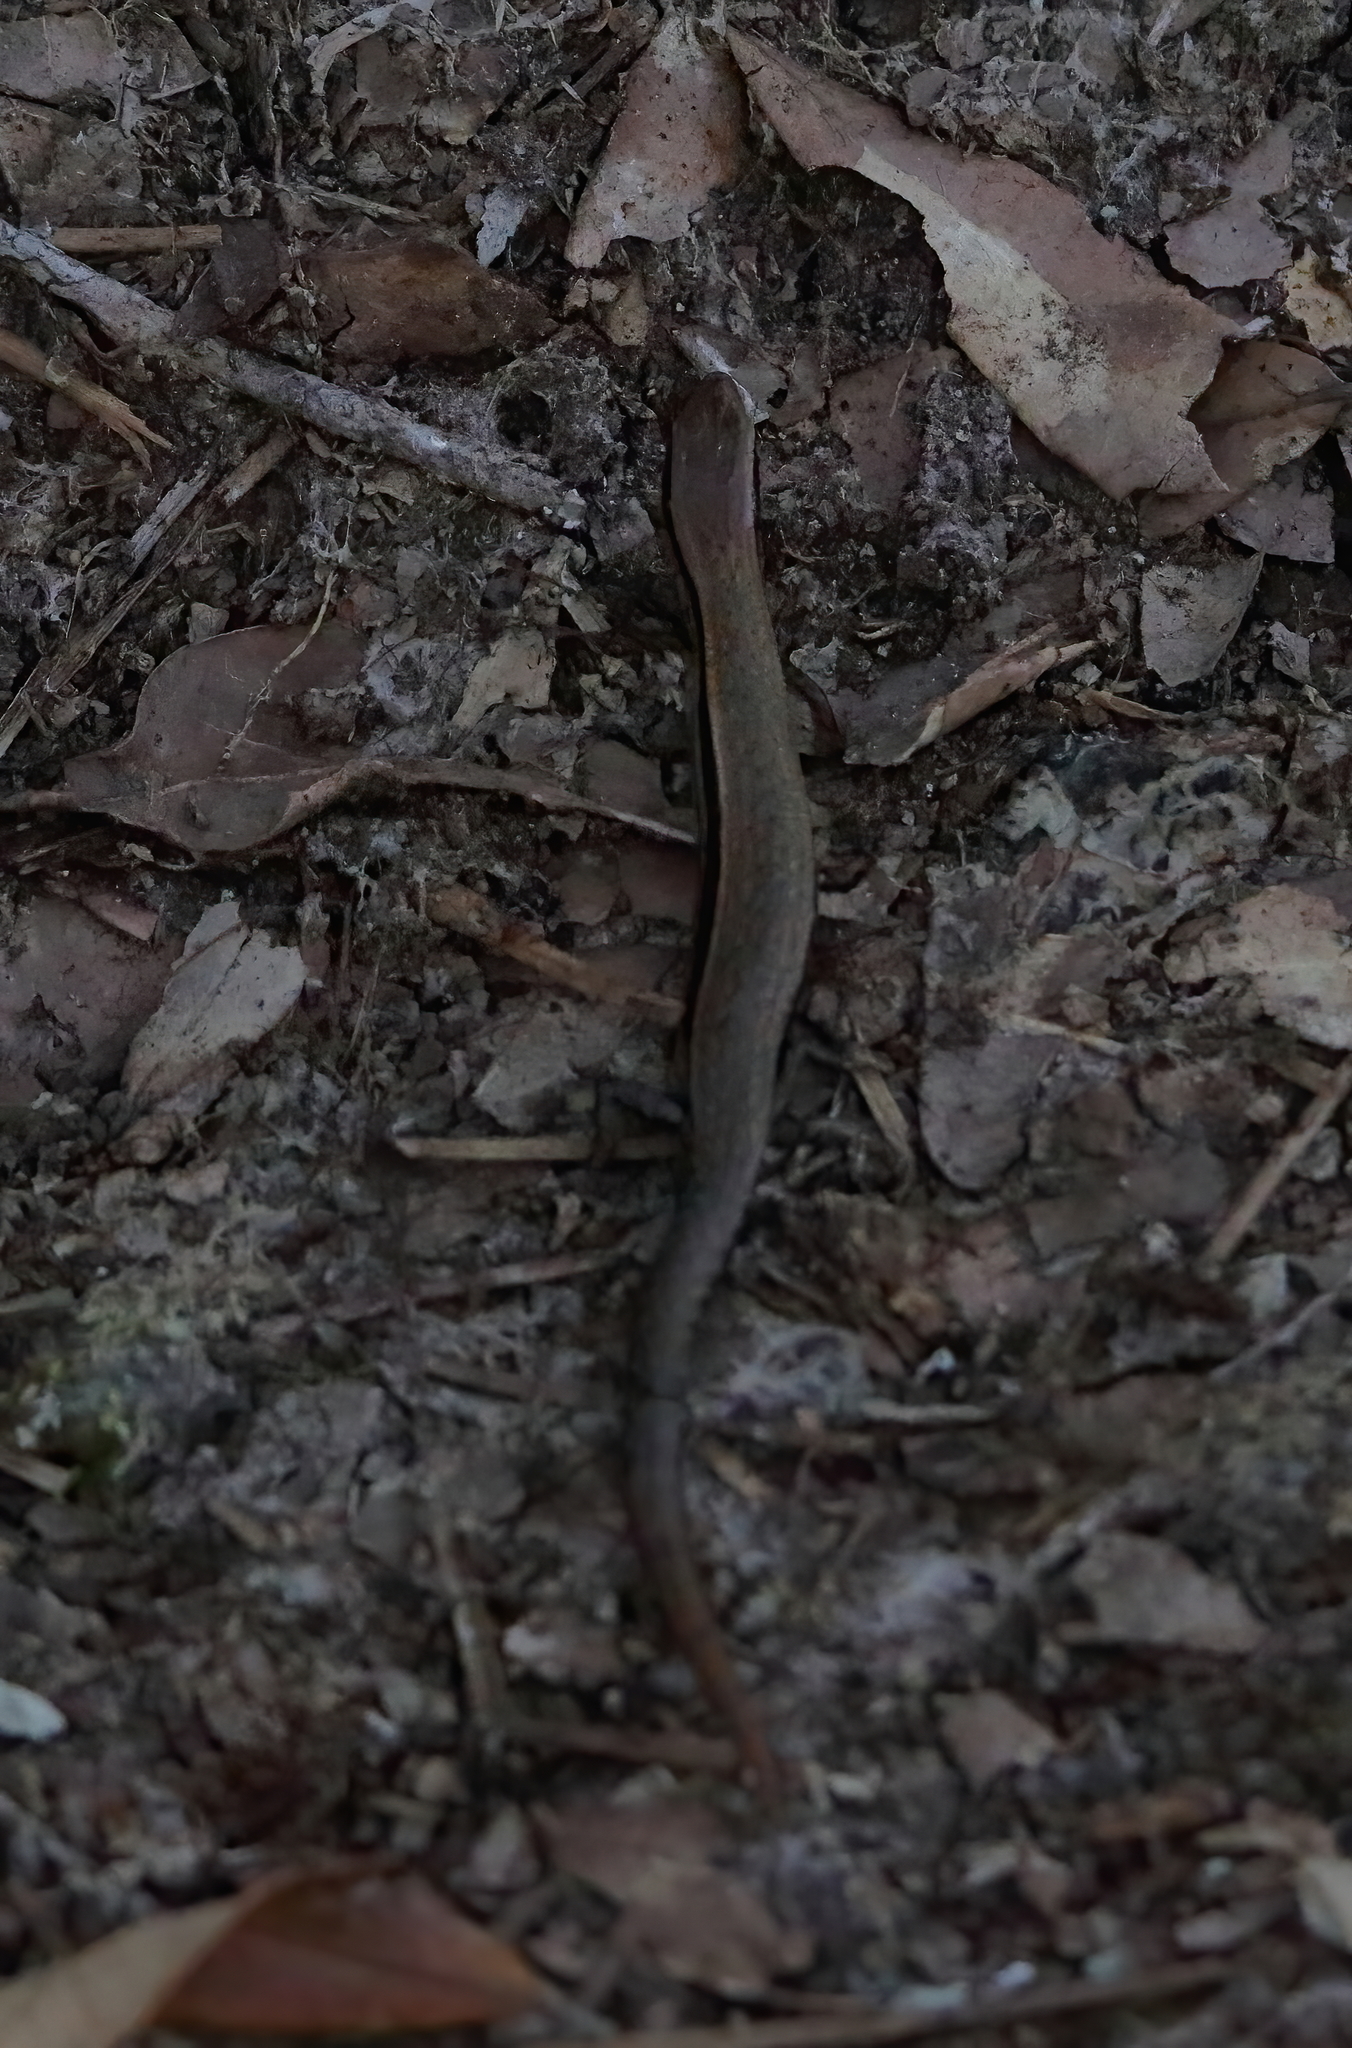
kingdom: Animalia
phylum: Chordata
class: Squamata
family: Scincidae
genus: Scincella
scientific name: Scincella lateralis
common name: Ground skink
